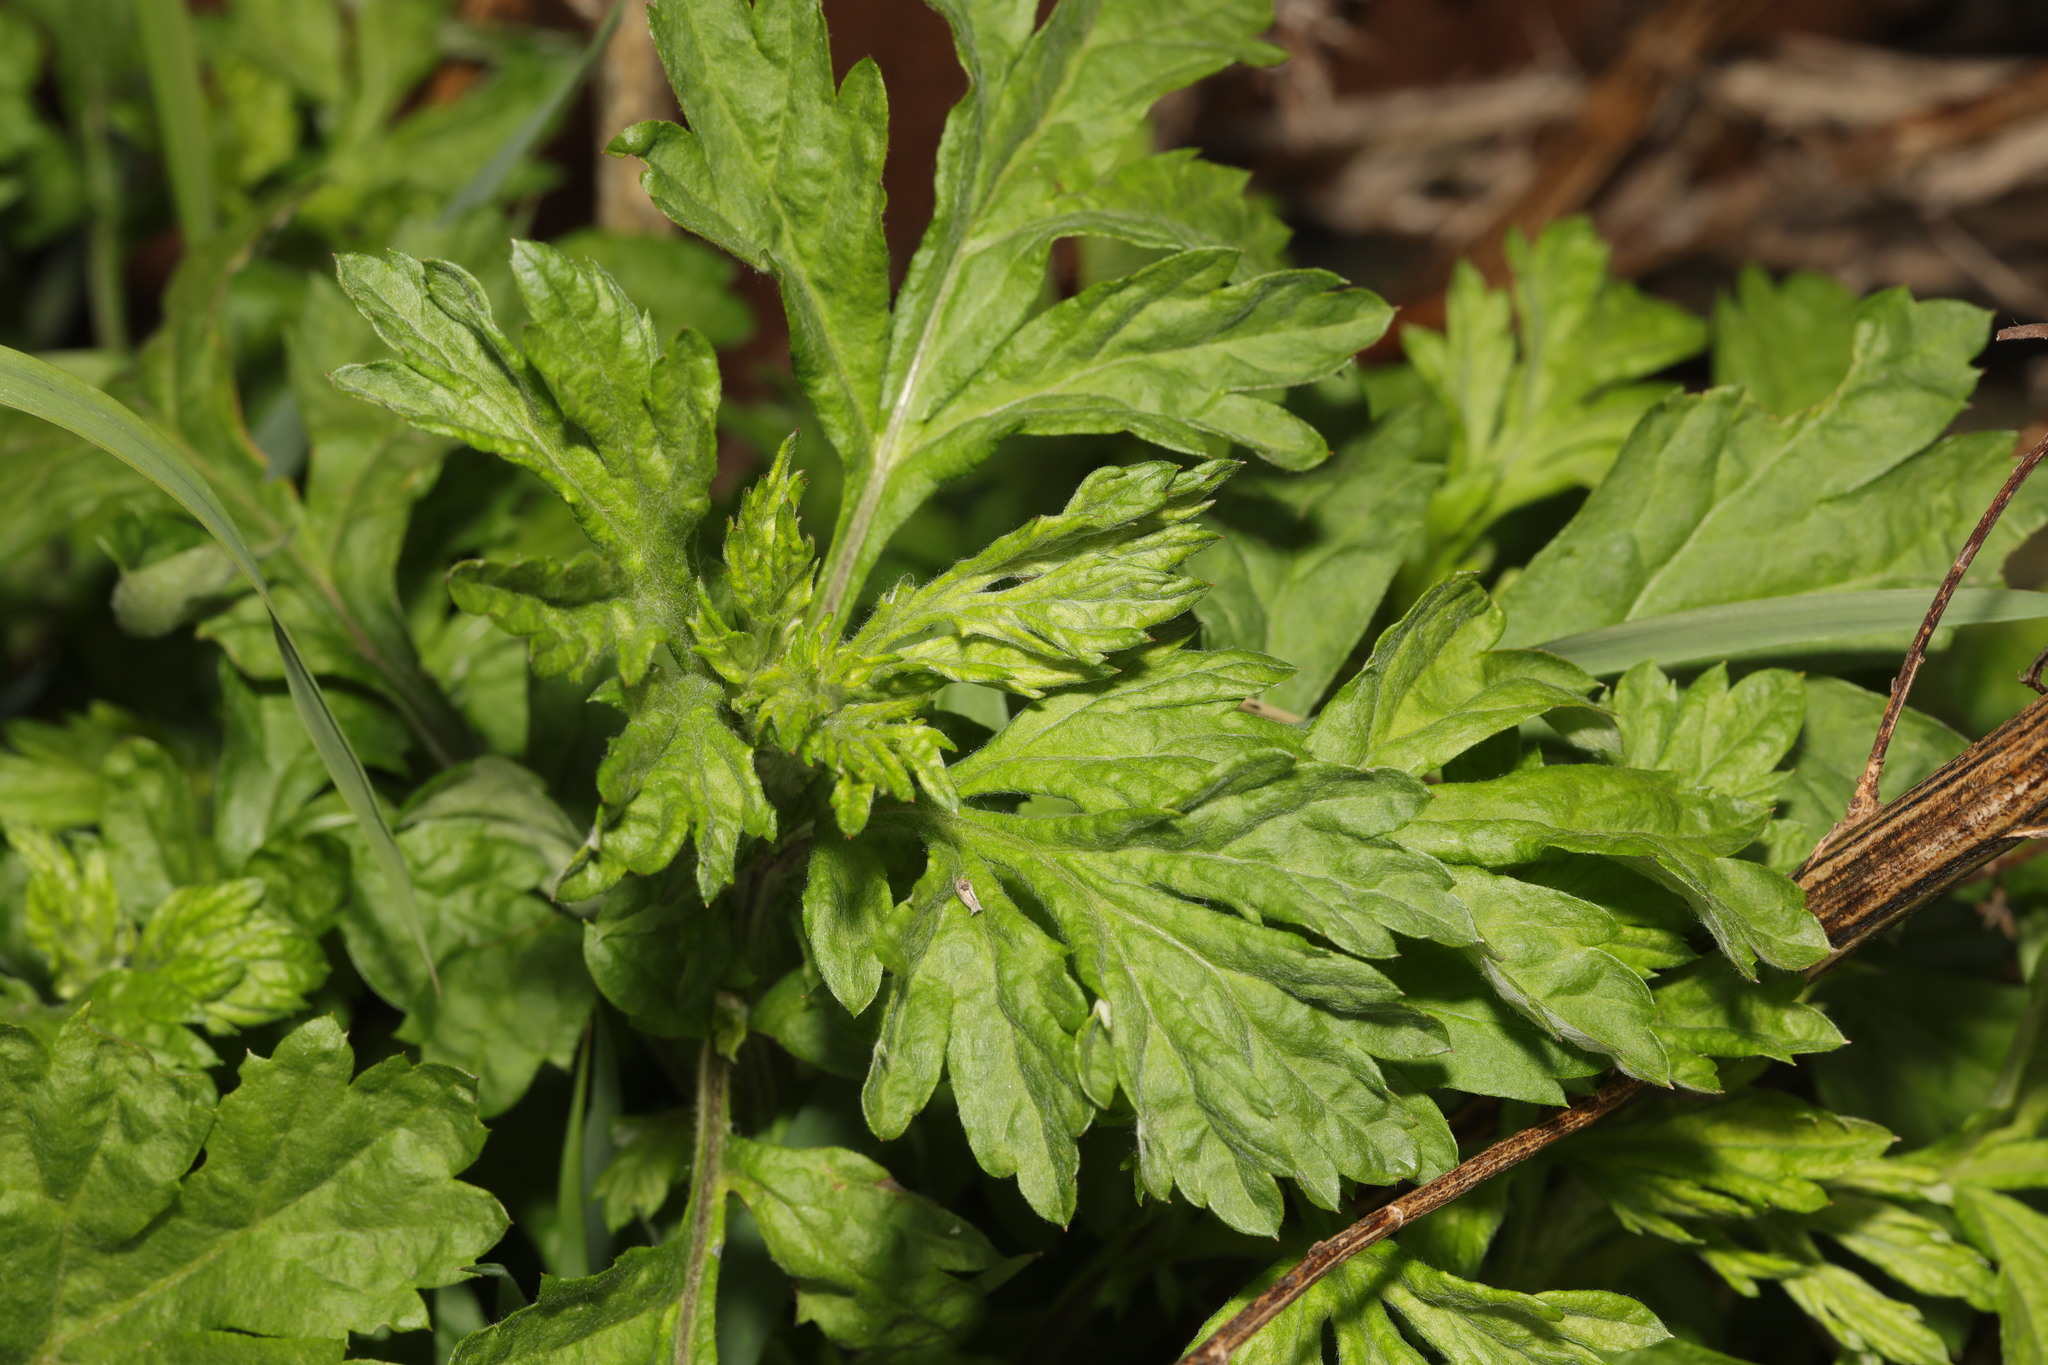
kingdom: Plantae
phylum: Tracheophyta
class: Magnoliopsida
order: Asterales
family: Asteraceae
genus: Artemisia
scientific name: Artemisia vulgaris
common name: Mugwort
